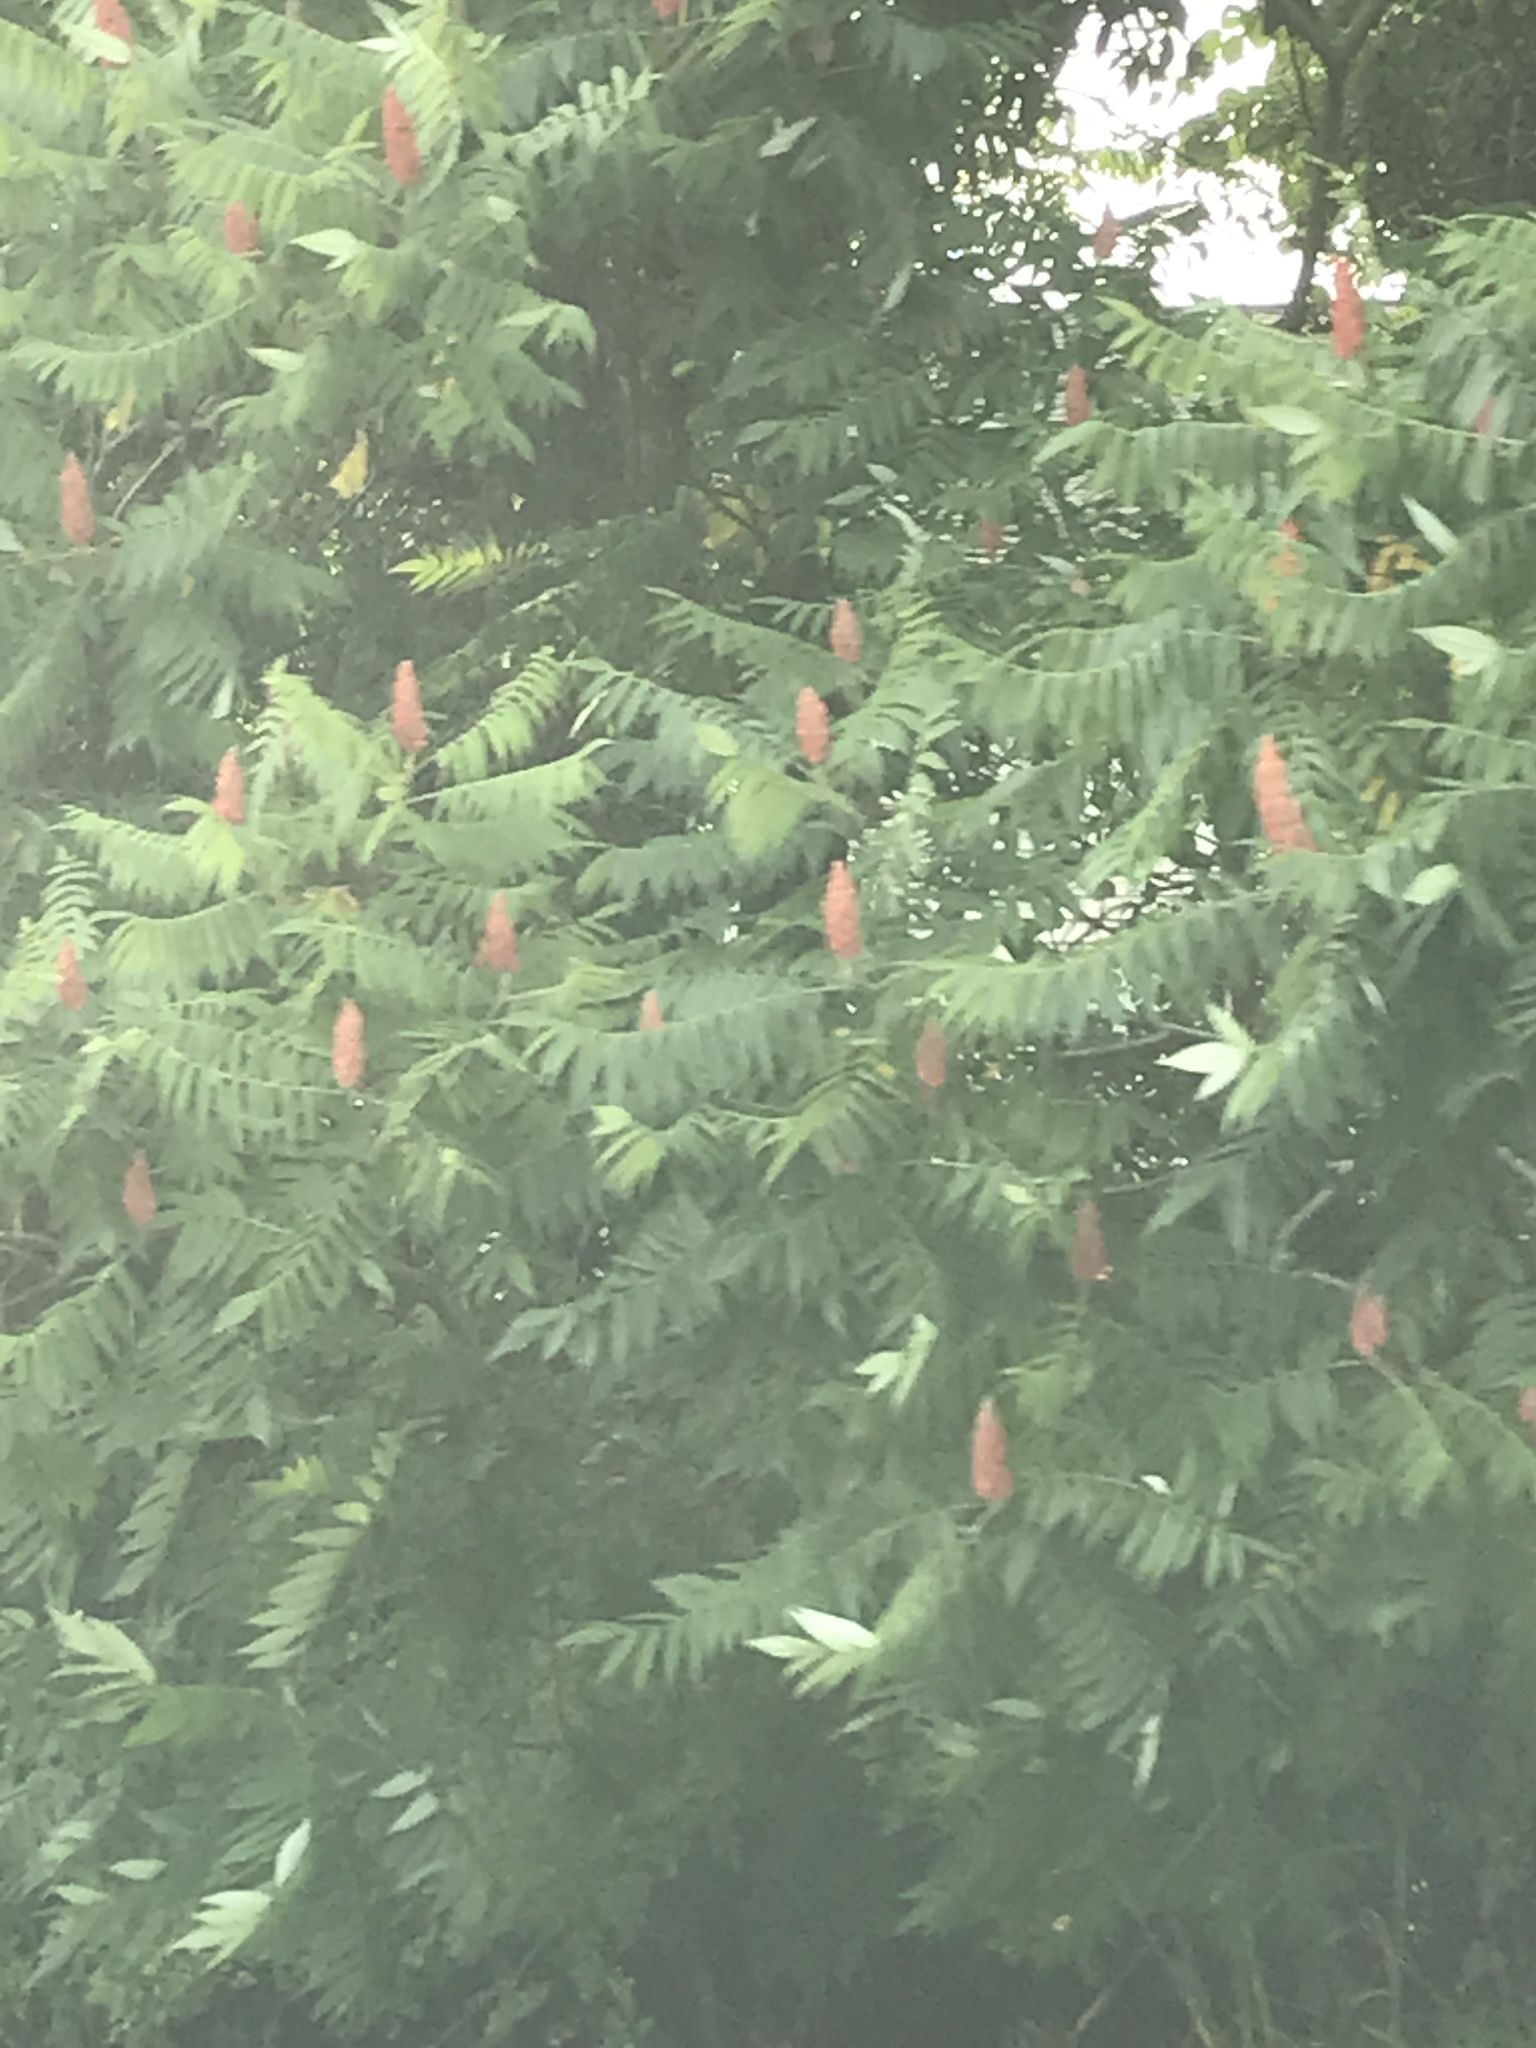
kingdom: Plantae
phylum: Tracheophyta
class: Magnoliopsida
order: Sapindales
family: Anacardiaceae
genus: Rhus
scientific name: Rhus
